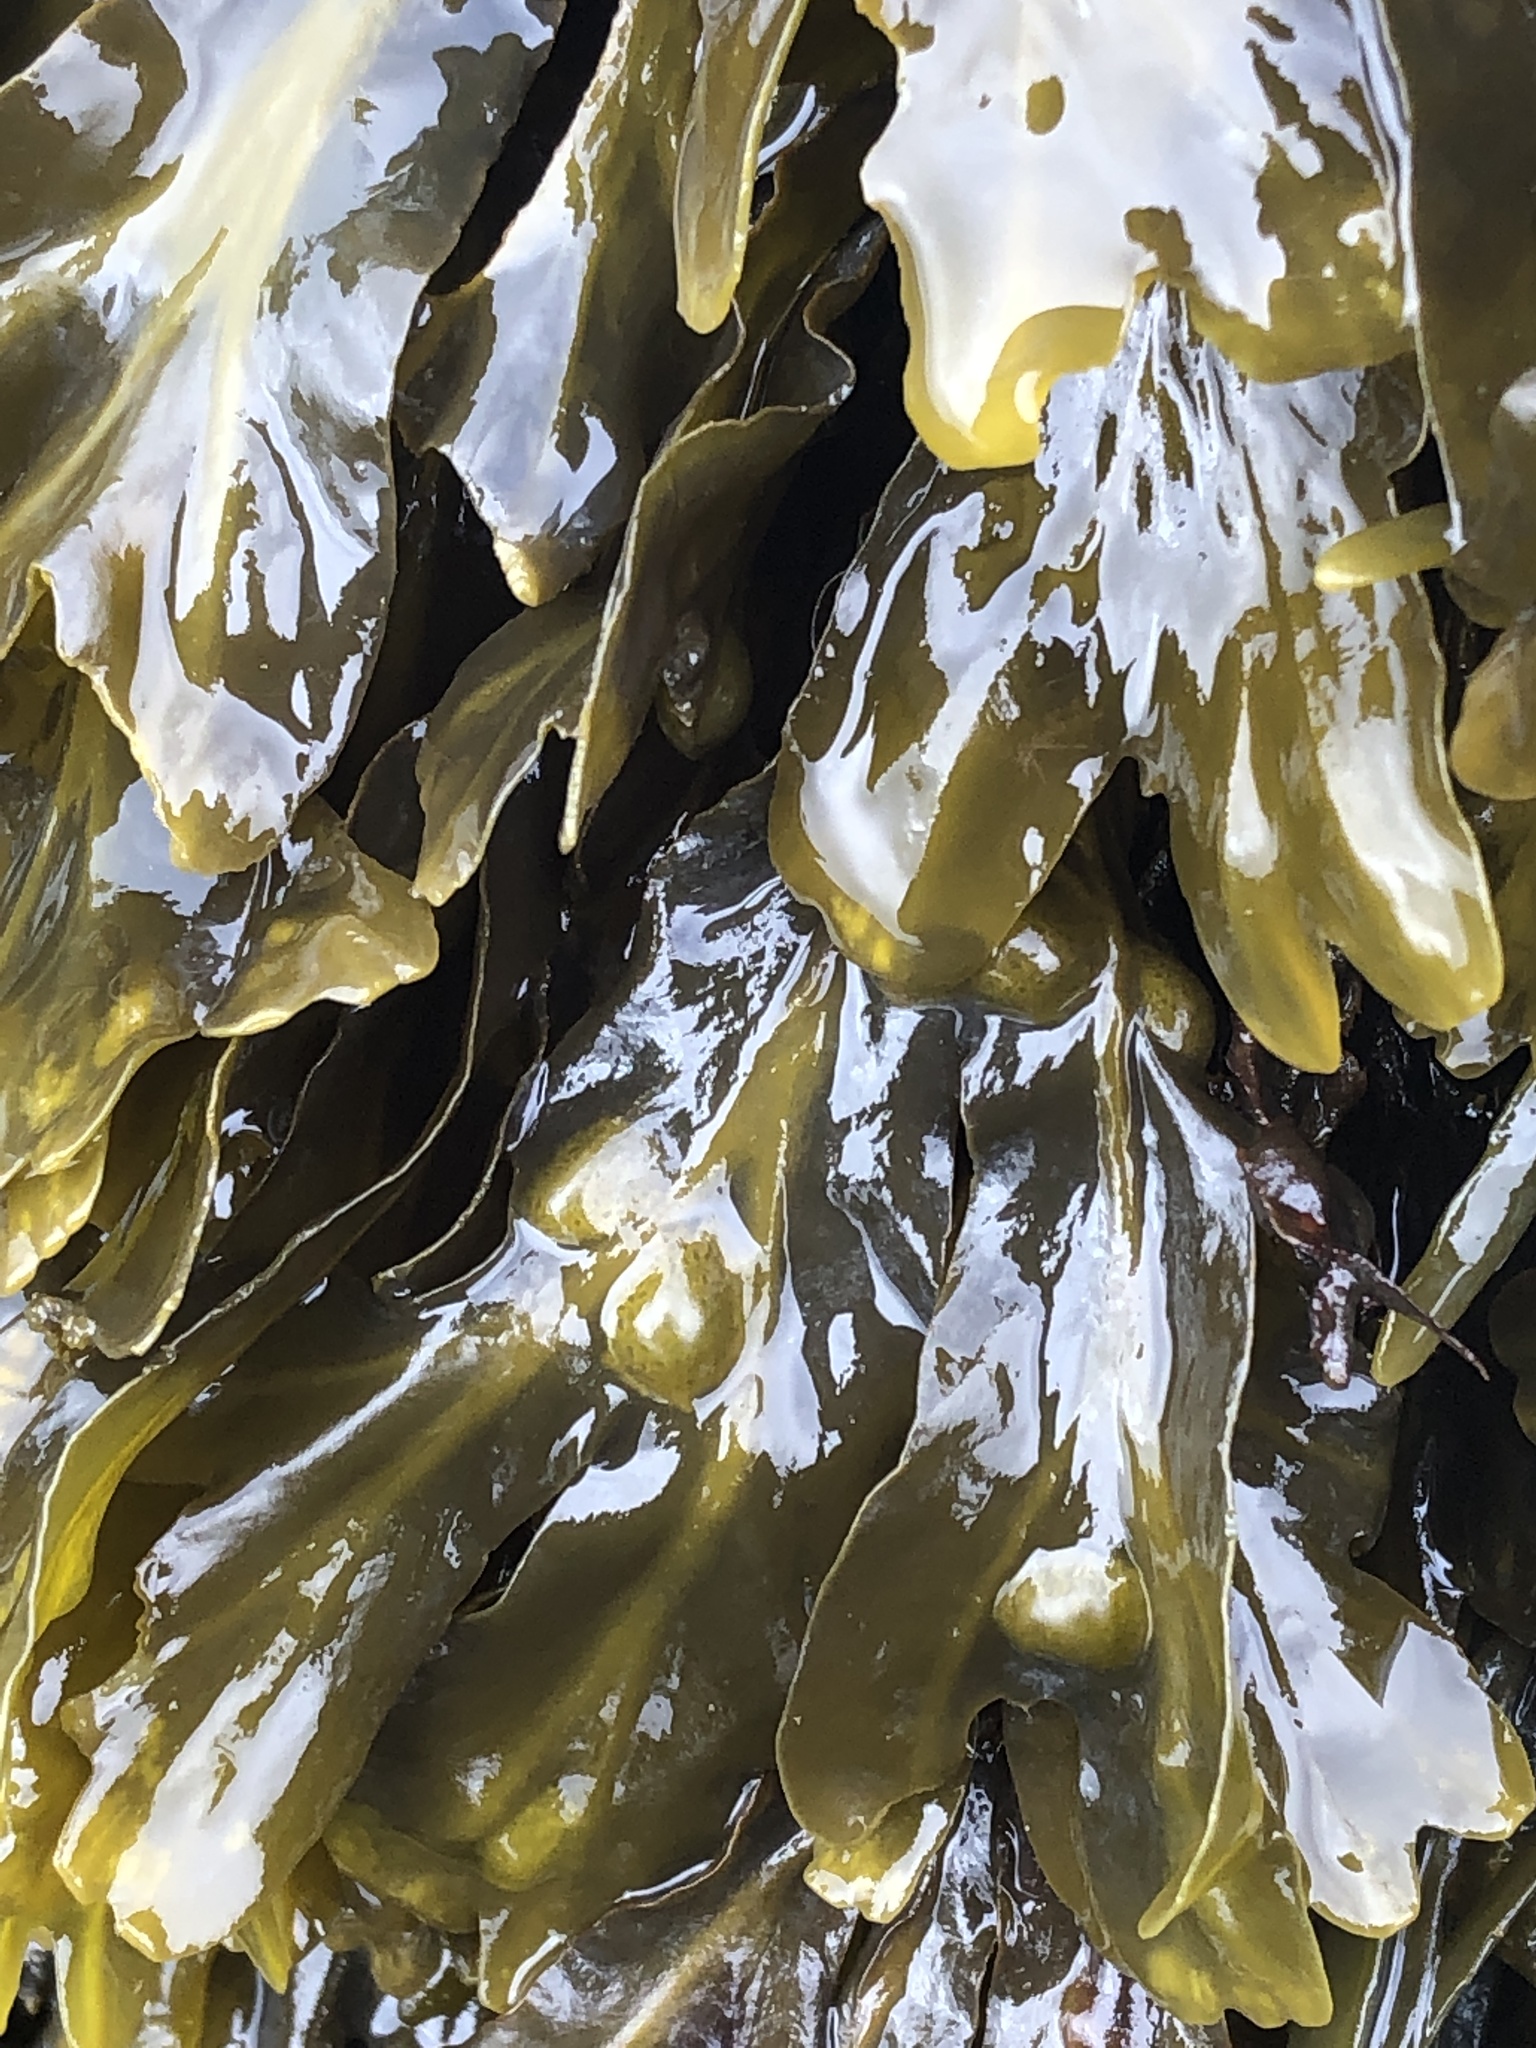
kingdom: Chromista
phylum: Ochrophyta
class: Phaeophyceae
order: Fucales
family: Fucaceae
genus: Fucus
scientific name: Fucus vesiculosus
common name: Bladder wrack
